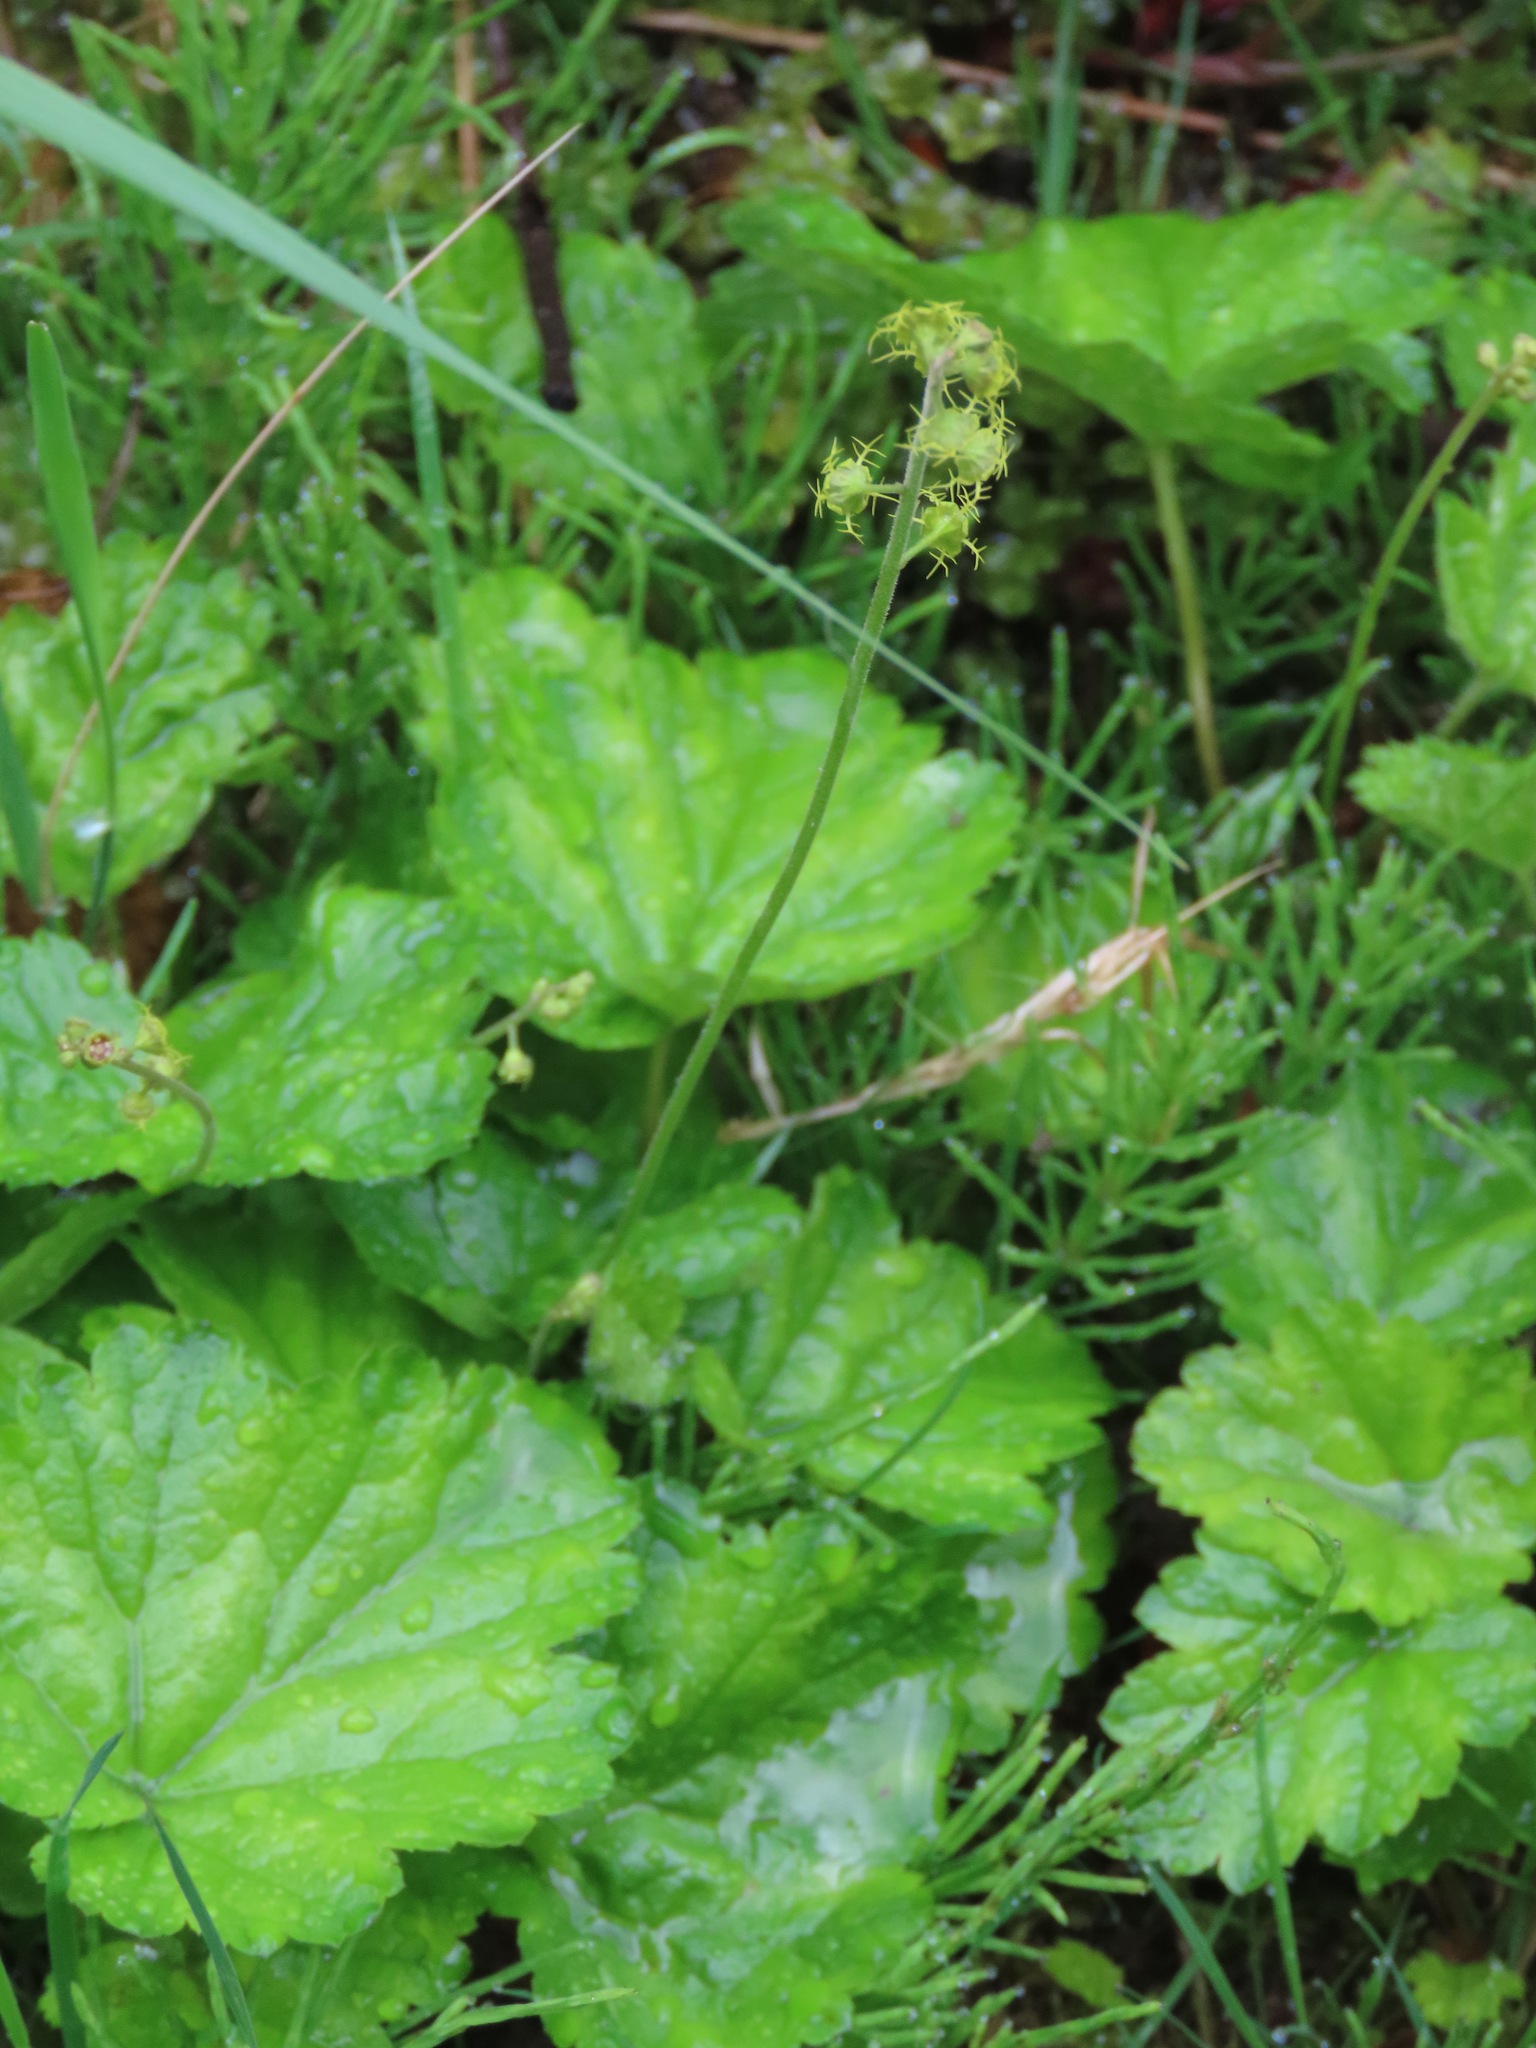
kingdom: Plantae
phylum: Tracheophyta
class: Magnoliopsida
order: Saxifragales
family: Saxifragaceae
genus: Pectiantia
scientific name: Pectiantia pentandra
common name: Alpine bishop's-cap
